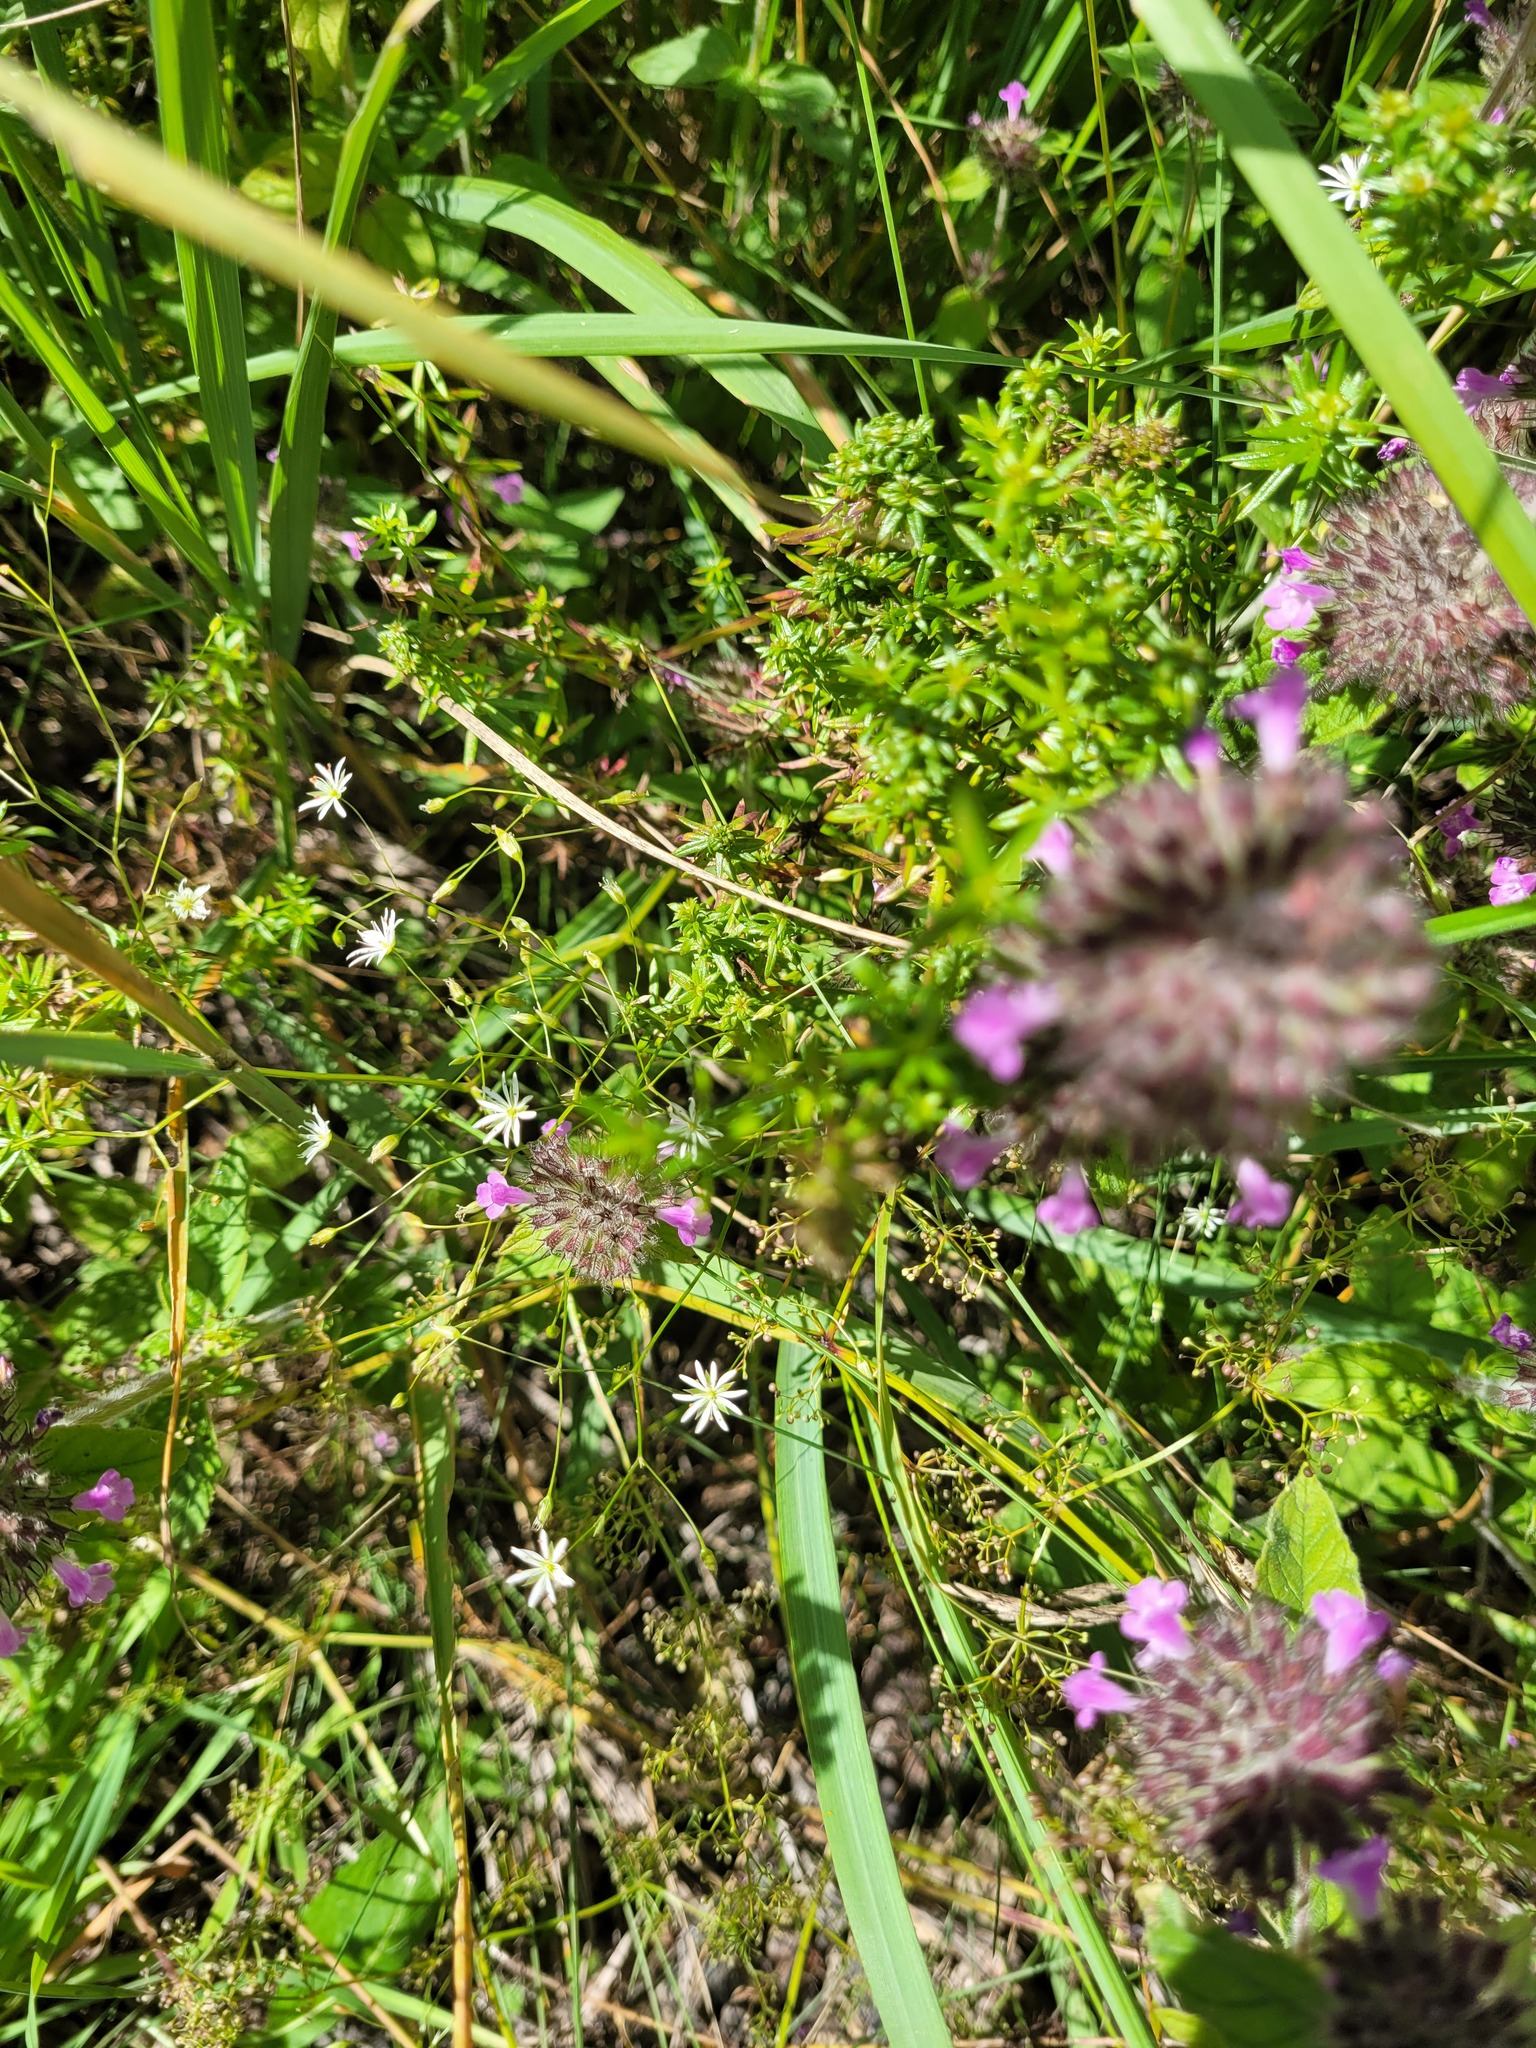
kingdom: Plantae
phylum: Tracheophyta
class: Magnoliopsida
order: Caryophyllales
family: Caryophyllaceae
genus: Stellaria
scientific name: Stellaria graminea
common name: Grass-like starwort
